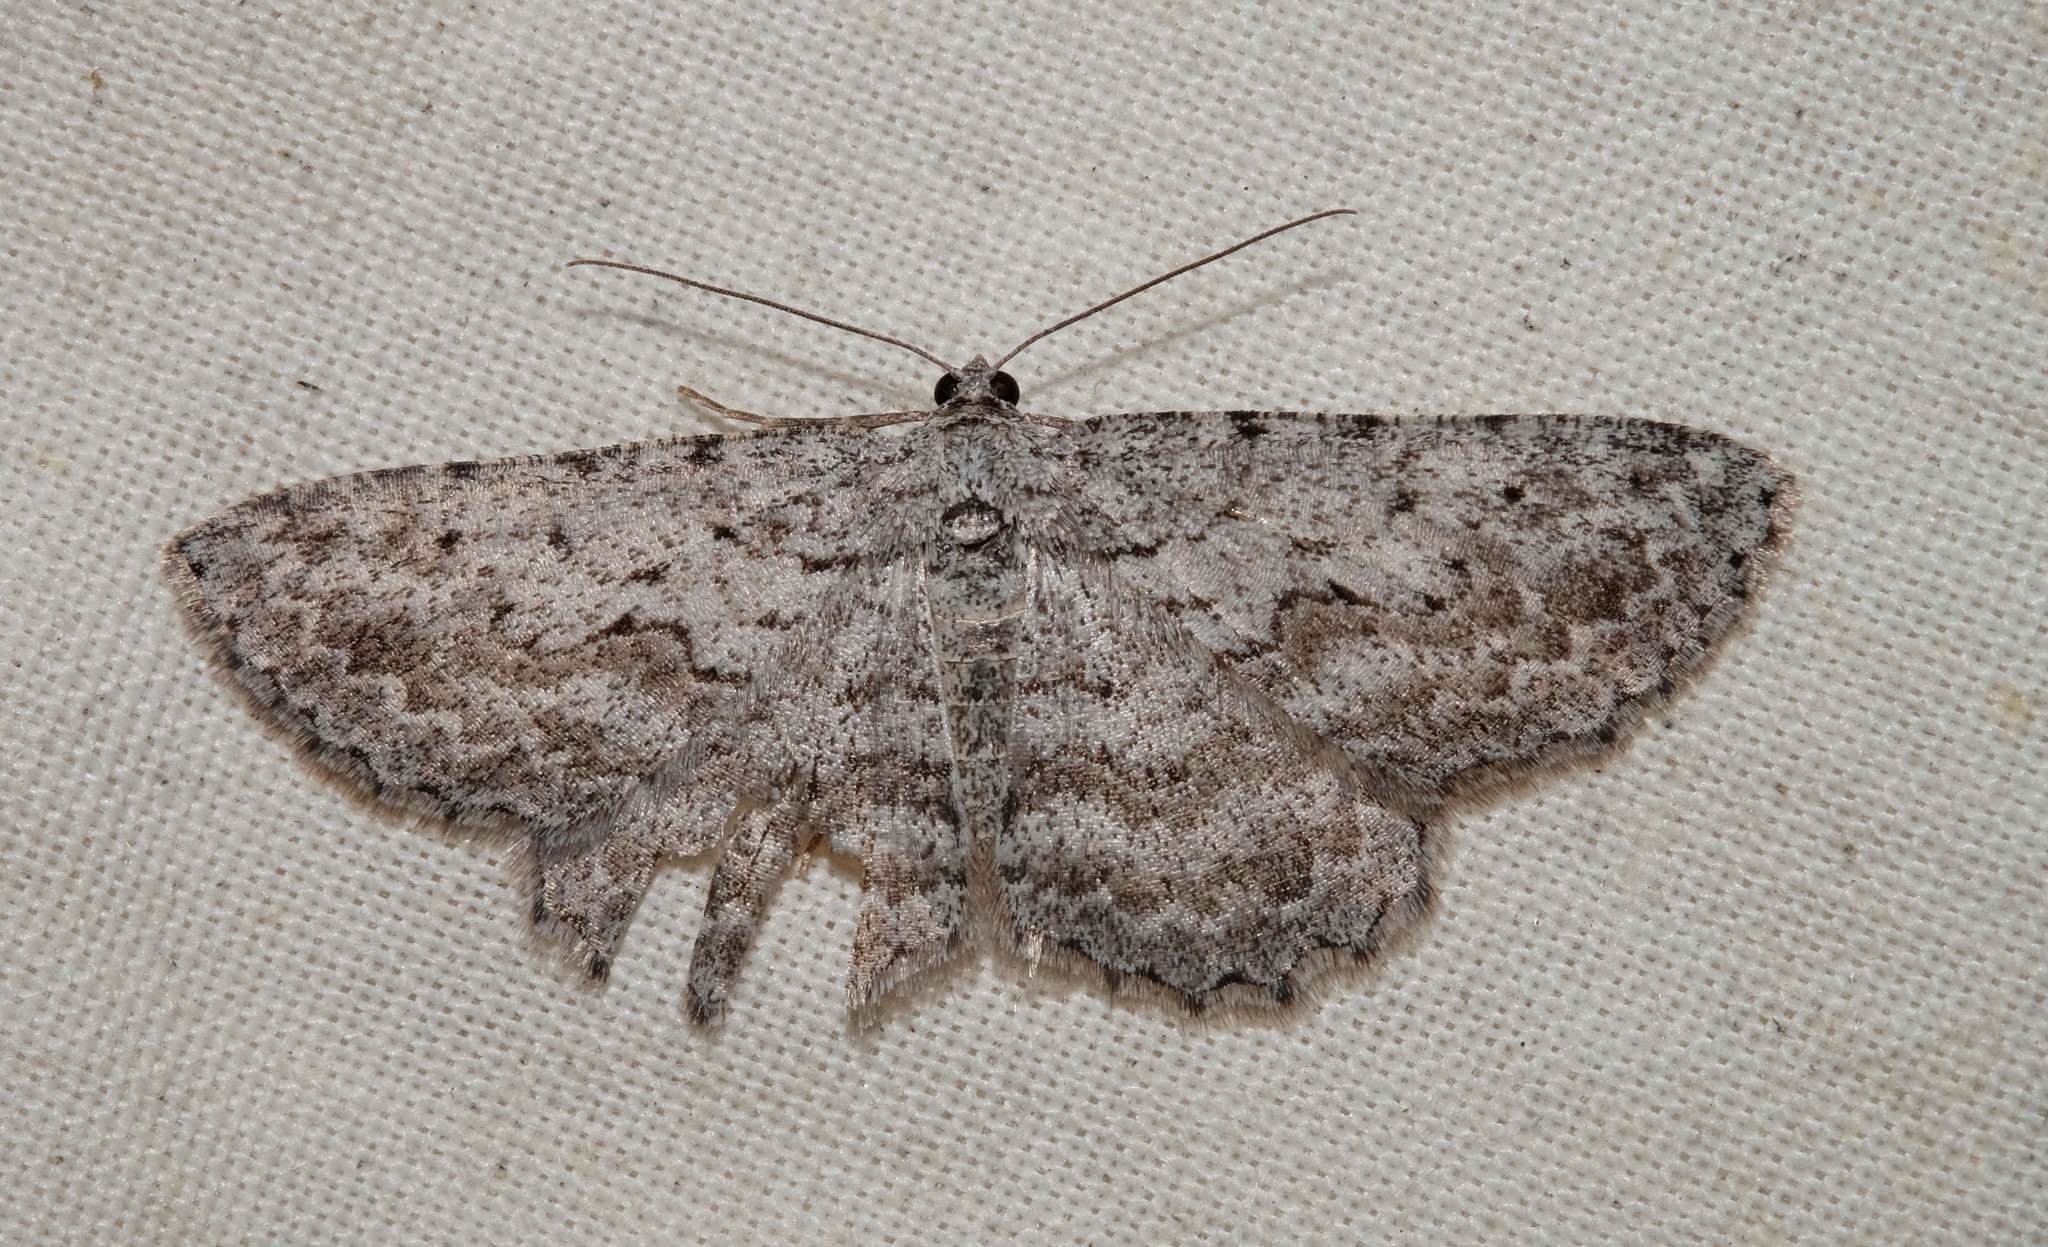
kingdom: Animalia
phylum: Arthropoda
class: Insecta
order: Lepidoptera
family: Geometridae
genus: Psilosticha
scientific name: Psilosticha absorpta
